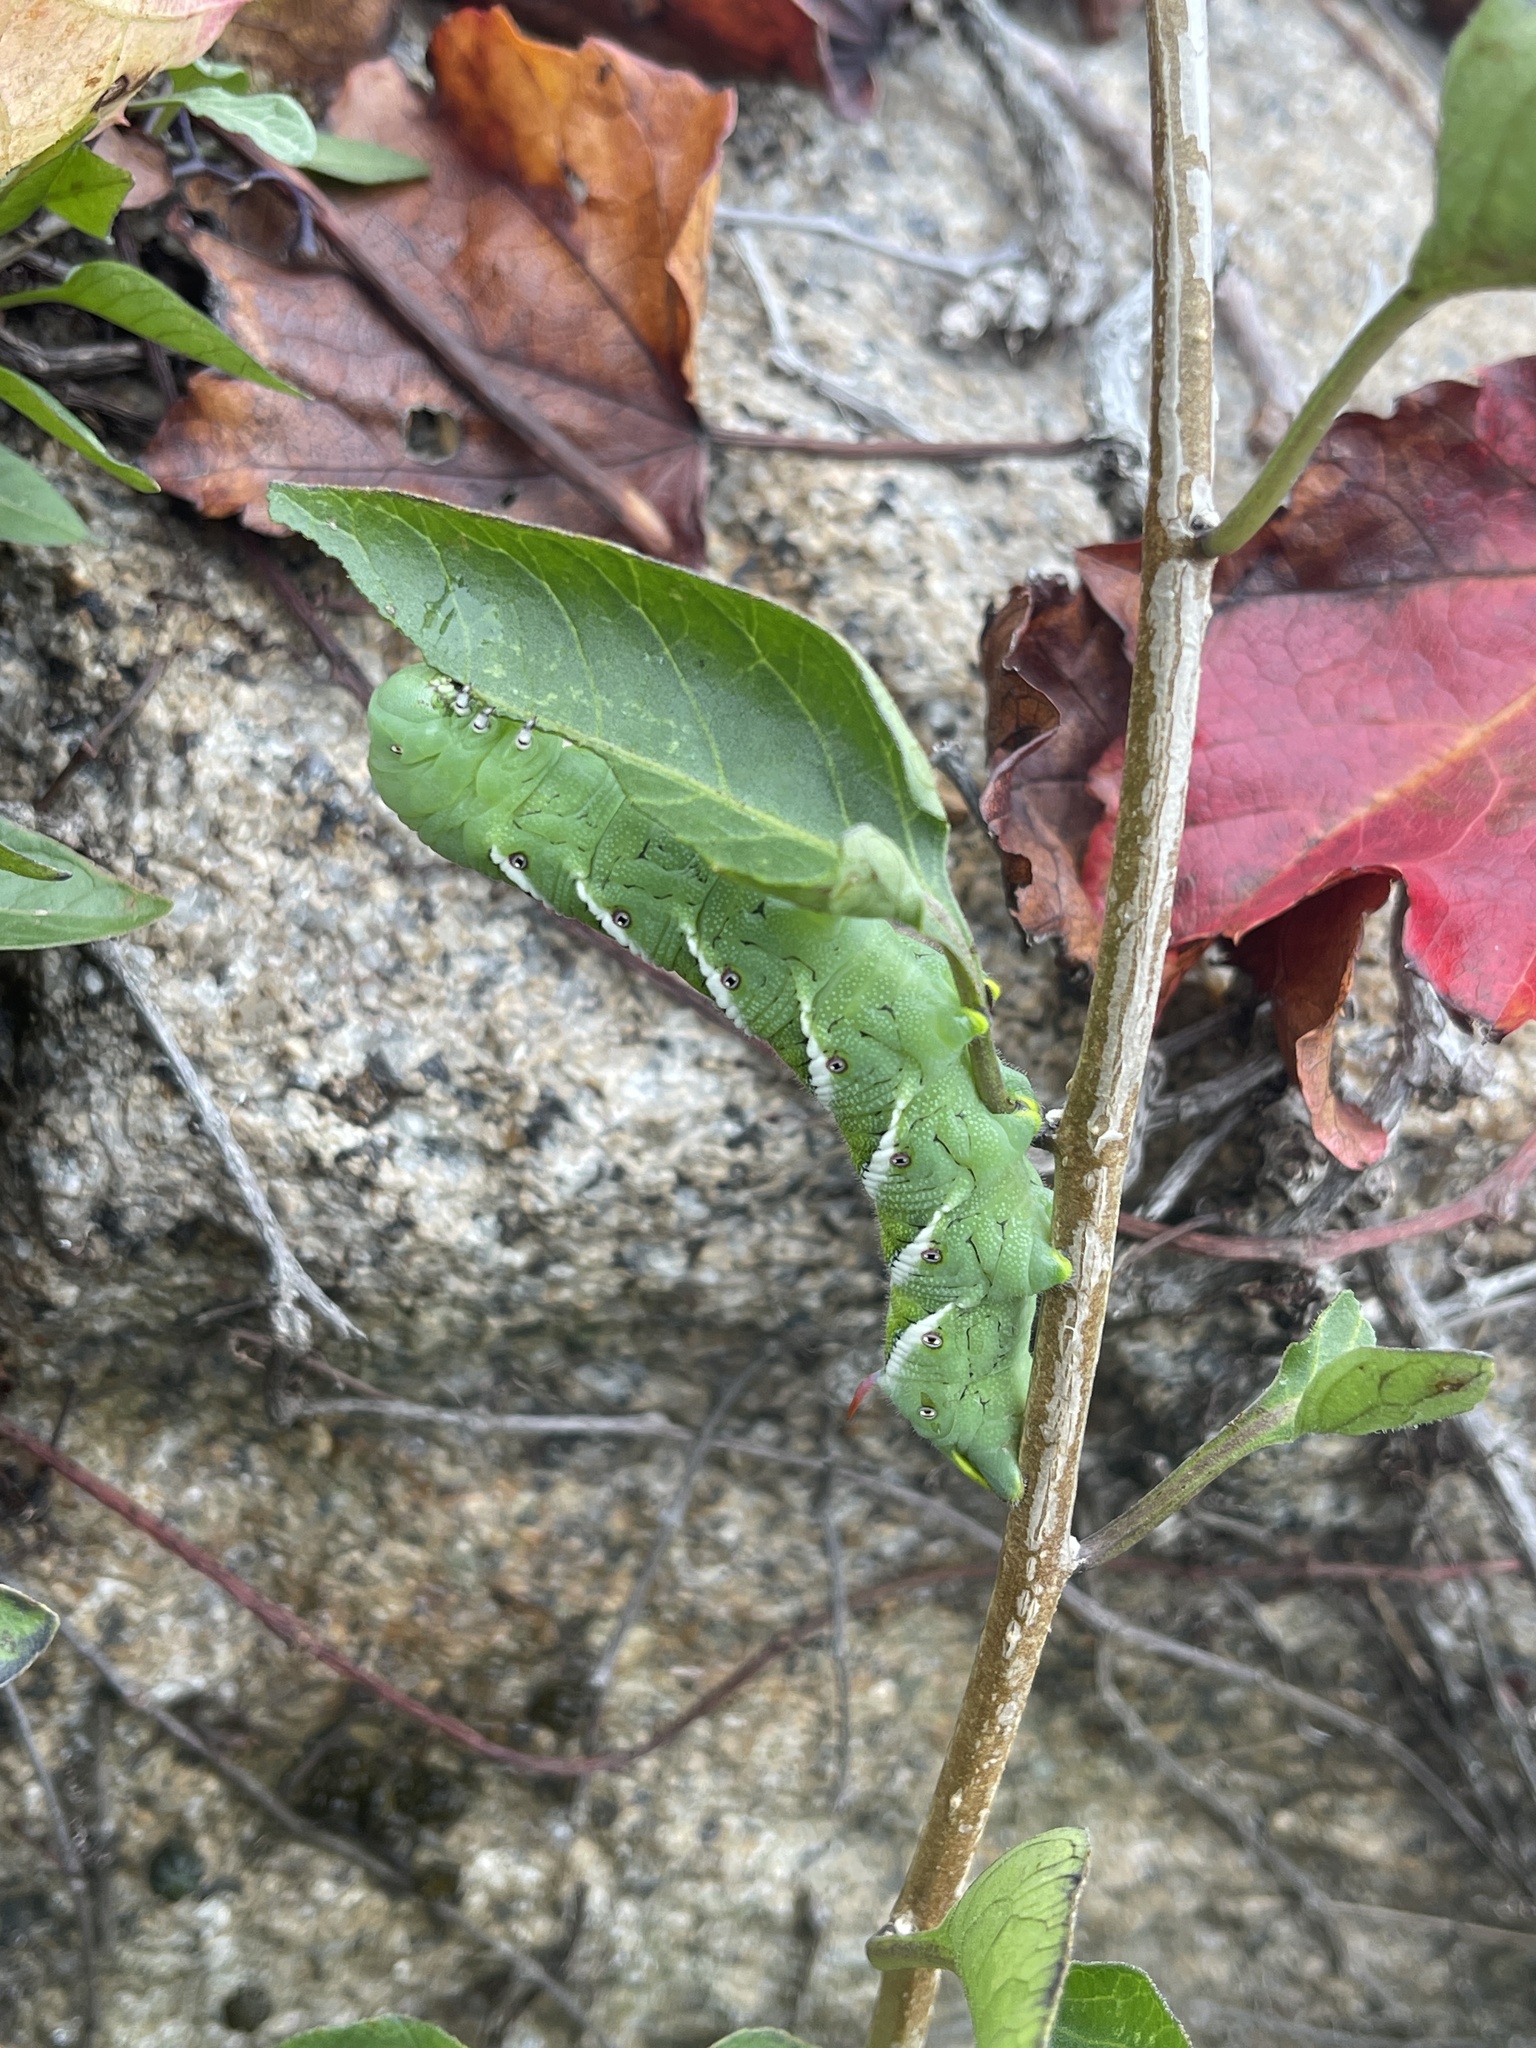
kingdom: Animalia
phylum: Arthropoda
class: Insecta
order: Lepidoptera
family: Sphingidae
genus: Manduca
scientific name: Manduca sexta
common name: Carolina sphinx
